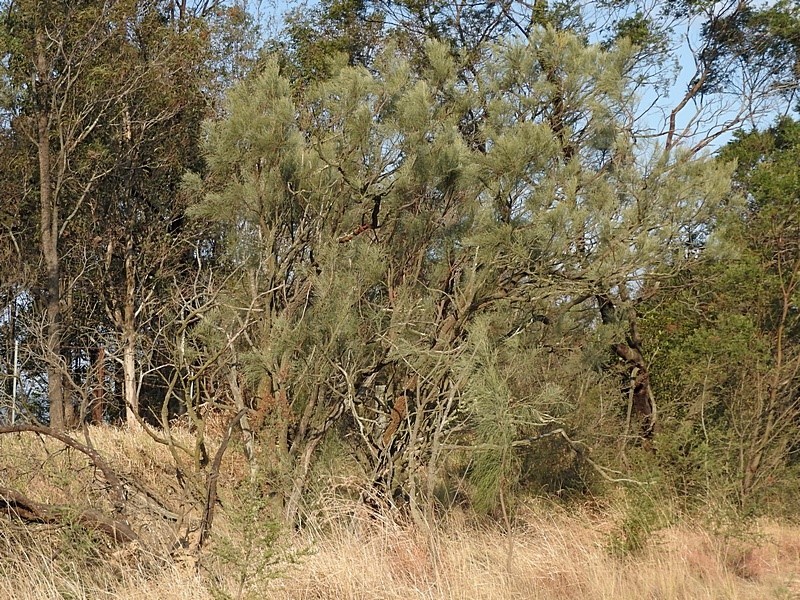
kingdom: Plantae
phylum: Tracheophyta
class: Magnoliopsida
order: Fabales
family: Fabaceae
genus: Jacksonia
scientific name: Jacksonia scoparia
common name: Dogwood
